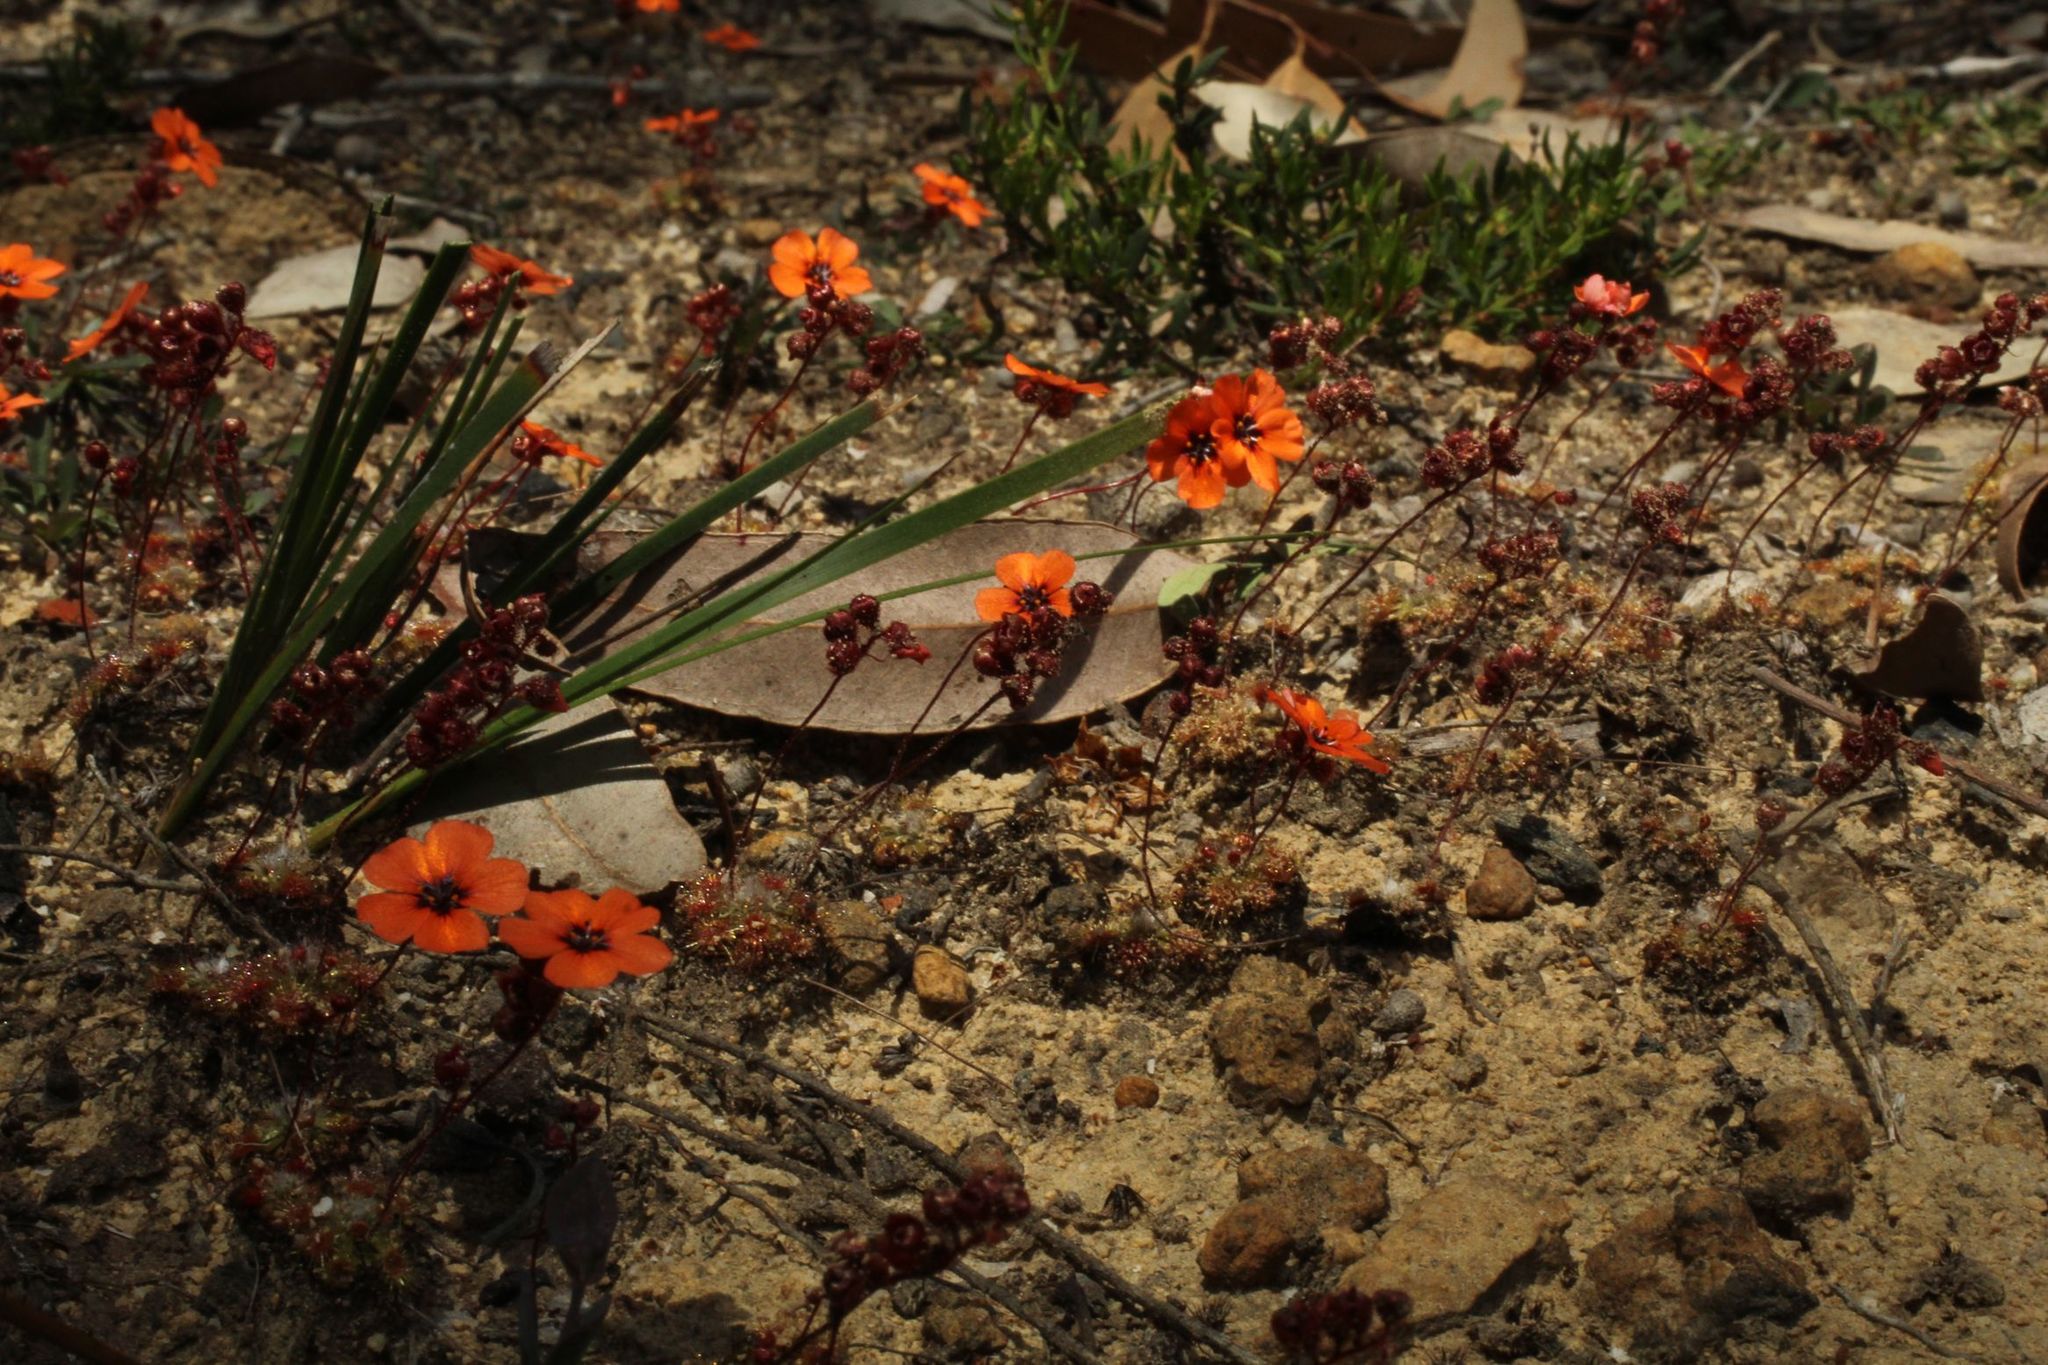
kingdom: Plantae
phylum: Tracheophyta
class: Magnoliopsida
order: Caryophyllales
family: Droseraceae
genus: Drosera
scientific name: Drosera platystigma
